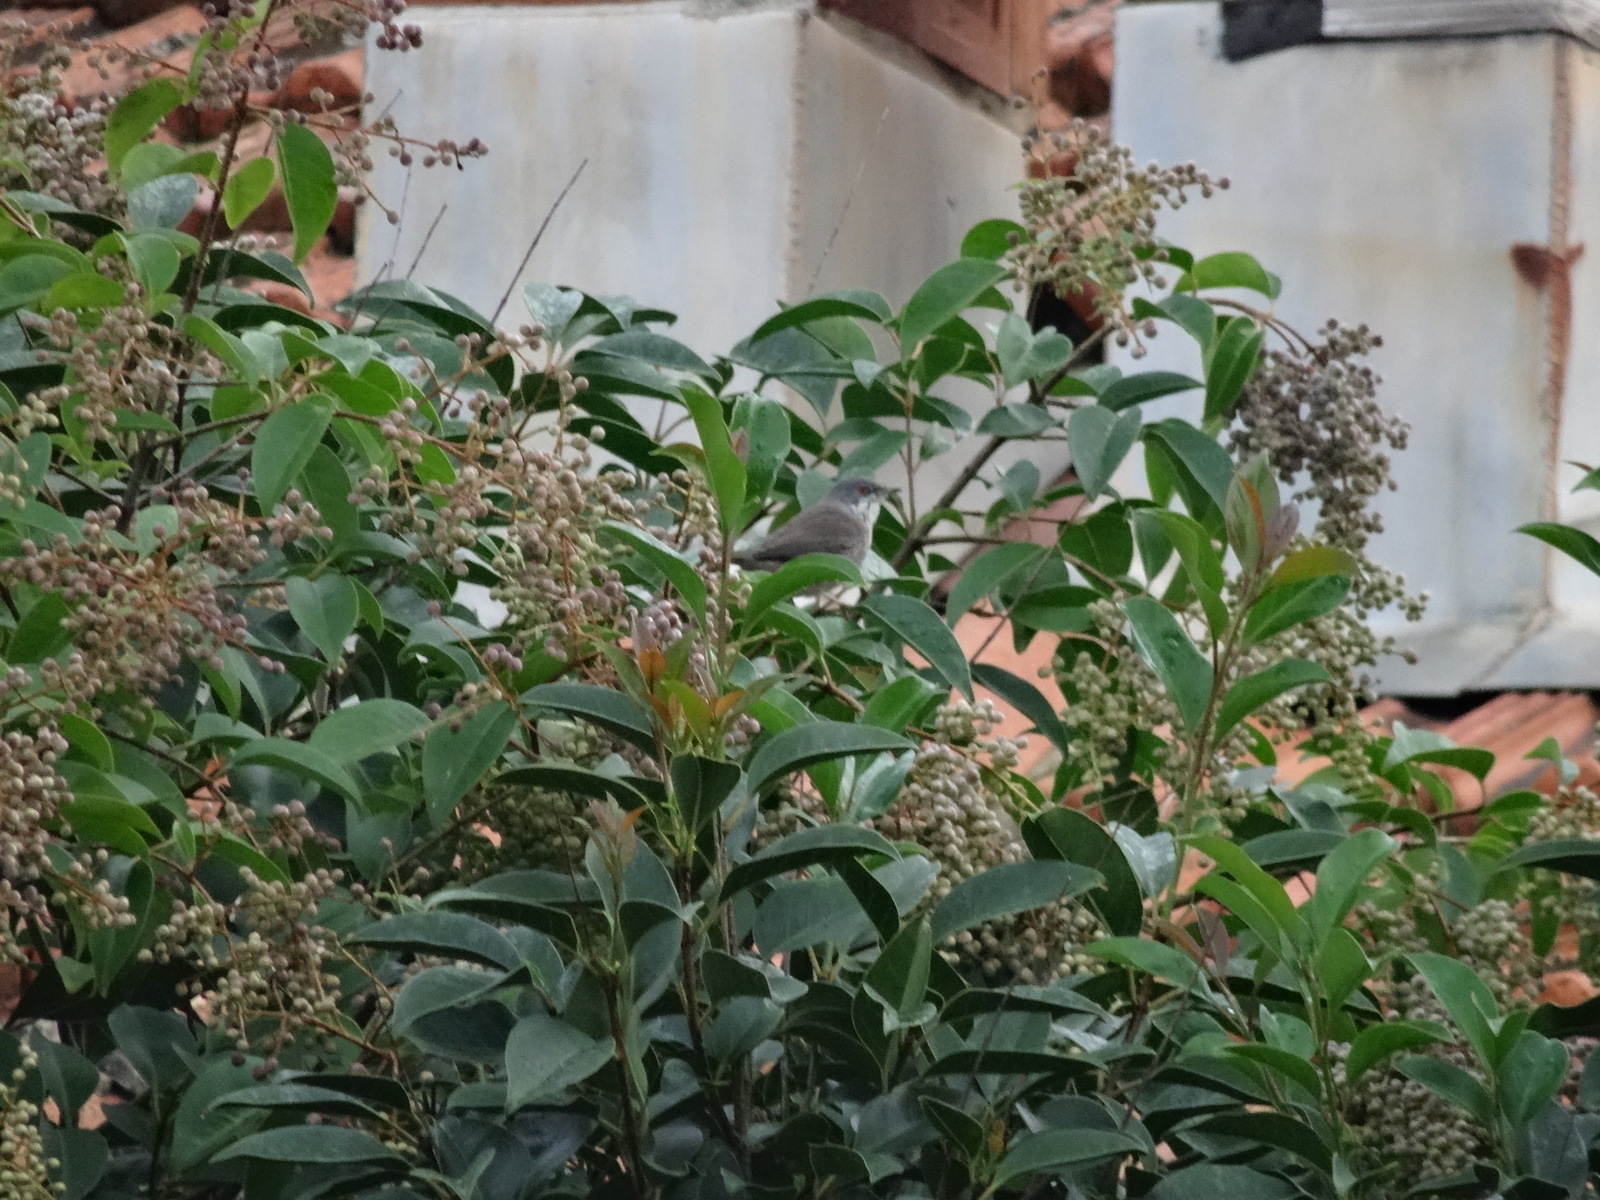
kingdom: Animalia
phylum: Chordata
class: Aves
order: Passeriformes
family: Sylviidae
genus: Curruca
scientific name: Curruca melanocephala
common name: Sardinian warbler
